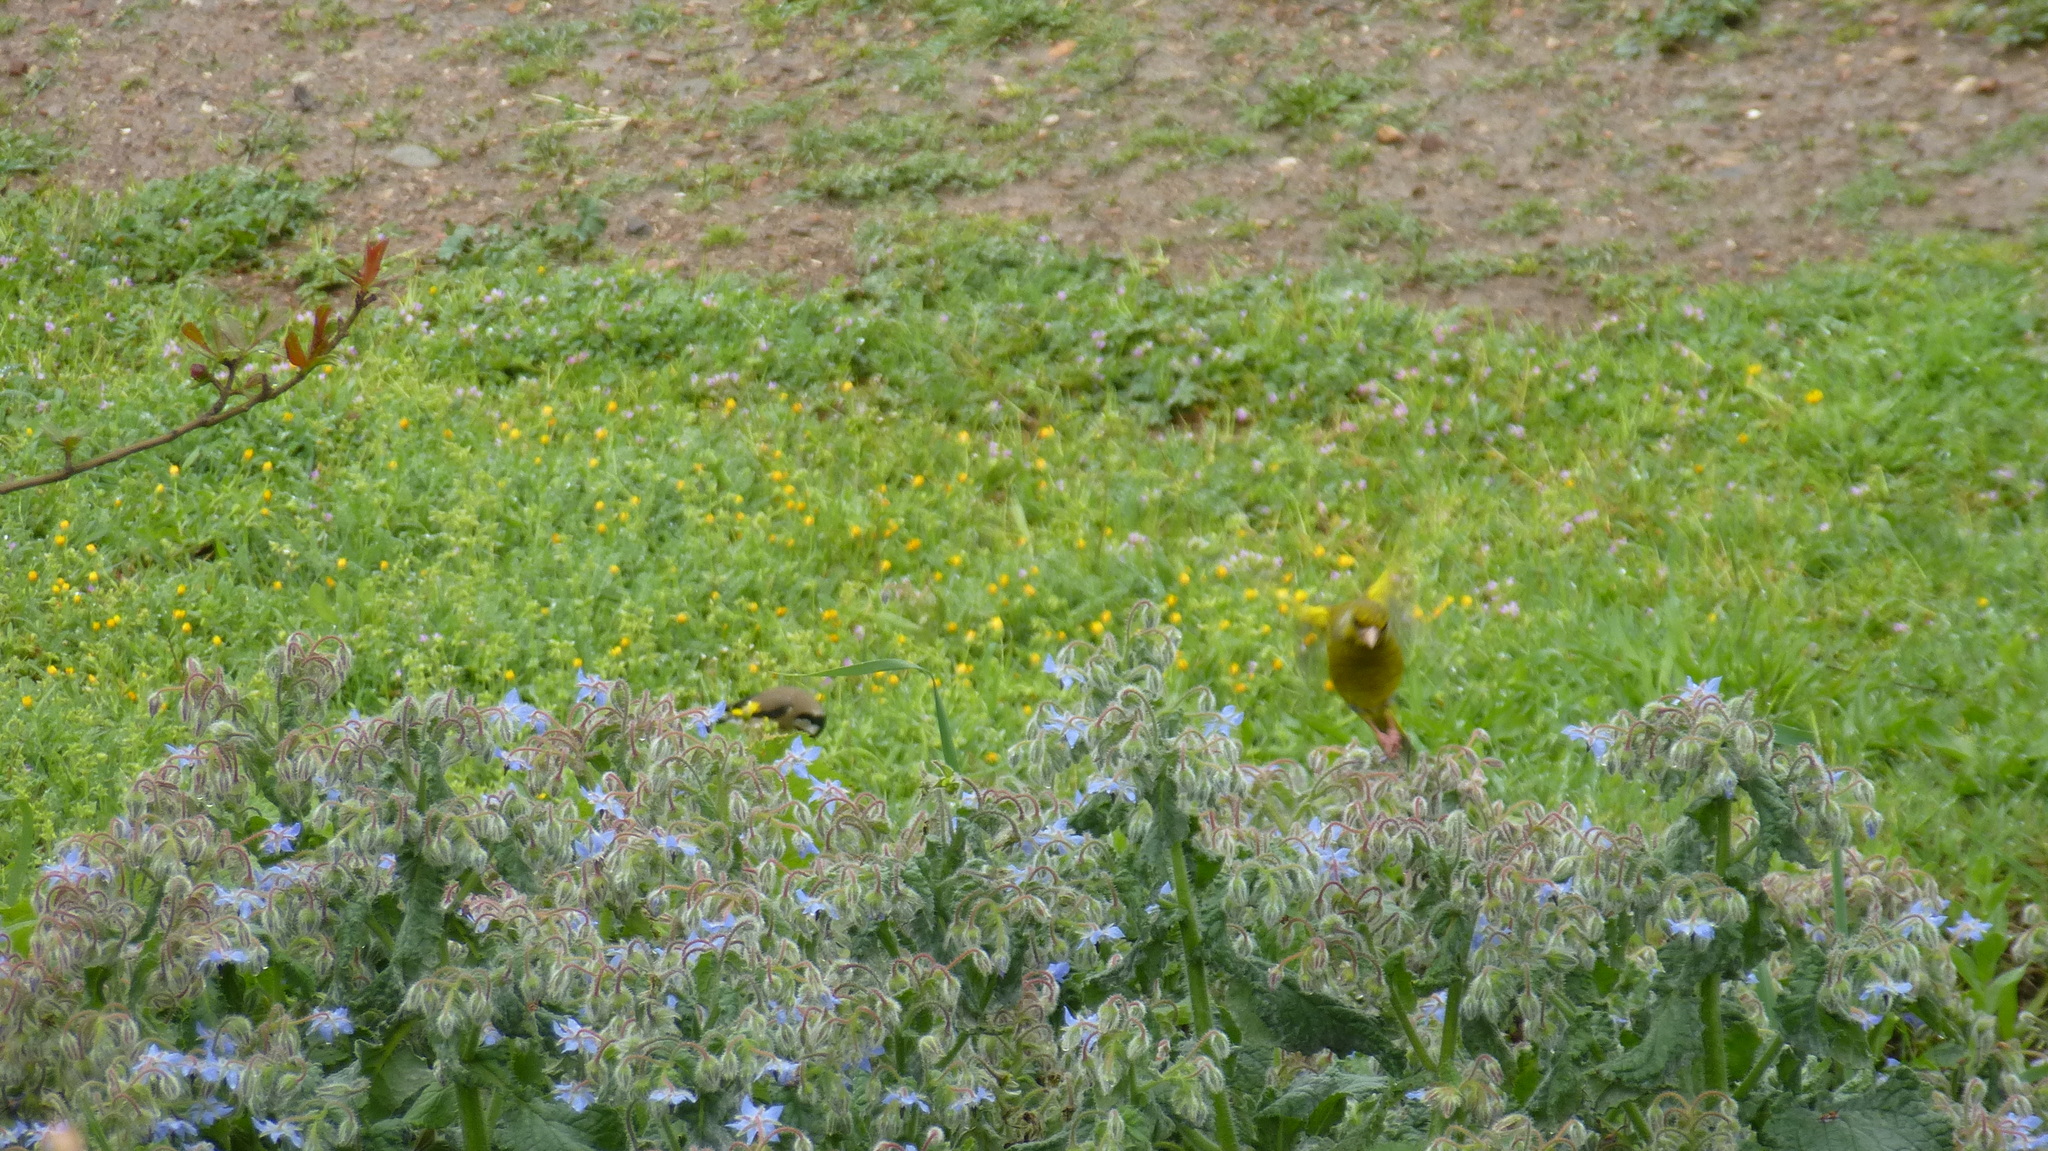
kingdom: Plantae
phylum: Tracheophyta
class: Liliopsida
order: Poales
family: Poaceae
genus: Chloris
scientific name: Chloris chloris
